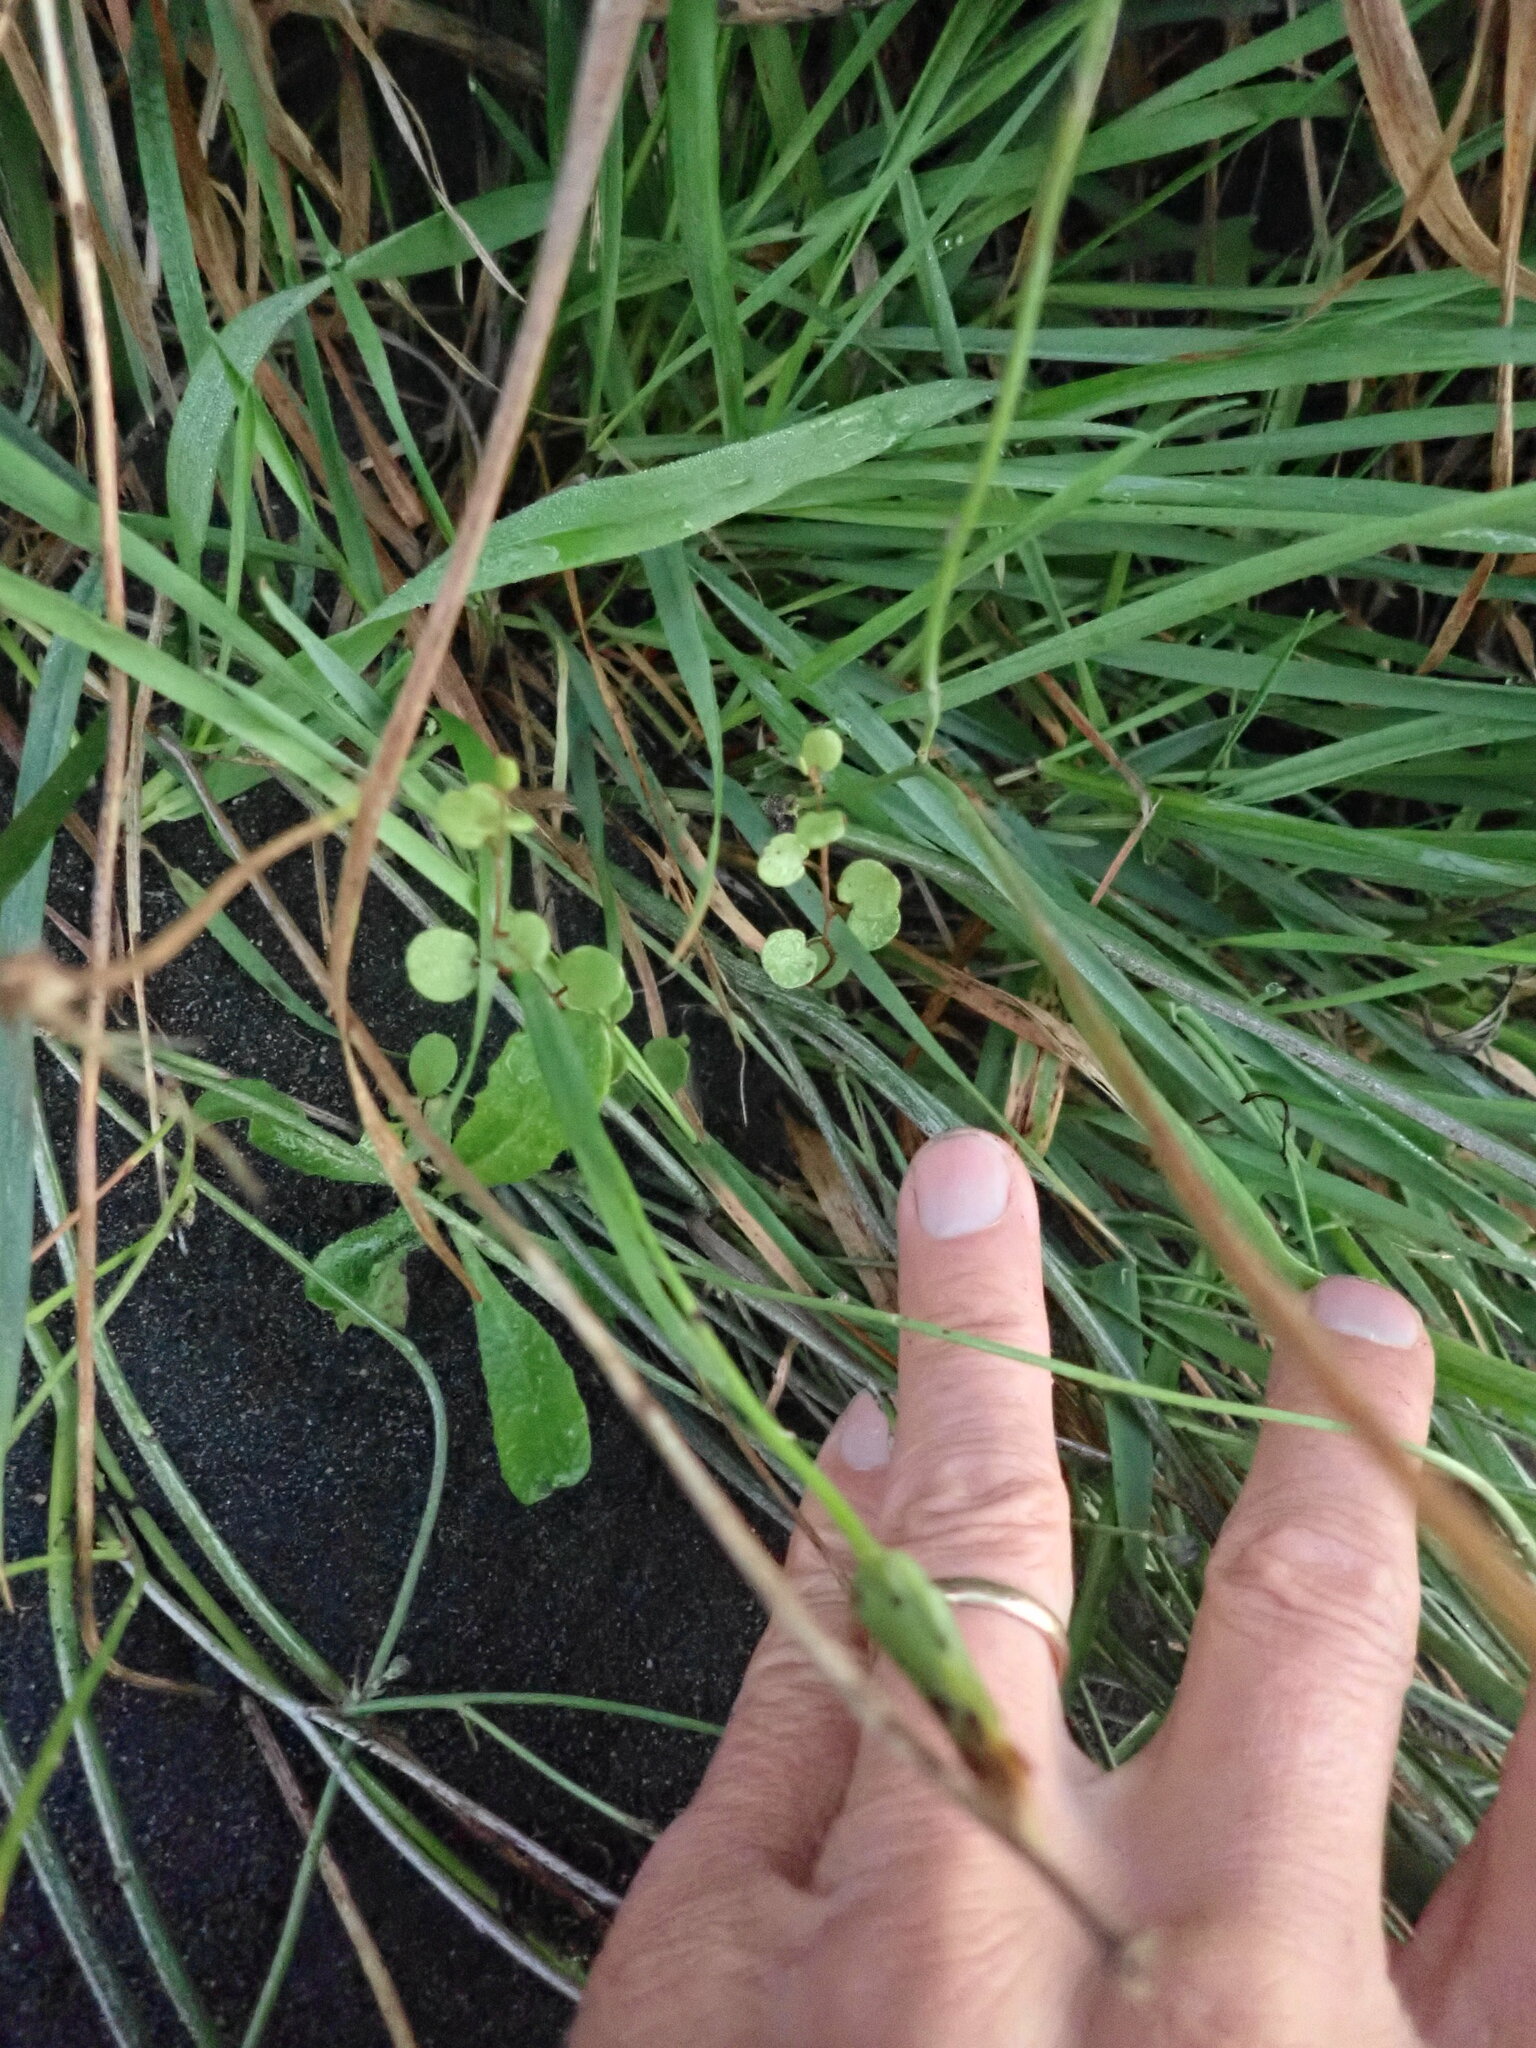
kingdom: Plantae
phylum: Tracheophyta
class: Magnoliopsida
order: Caryophyllales
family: Polygonaceae
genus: Muehlenbeckia
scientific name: Muehlenbeckia complexa
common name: Wireplant
